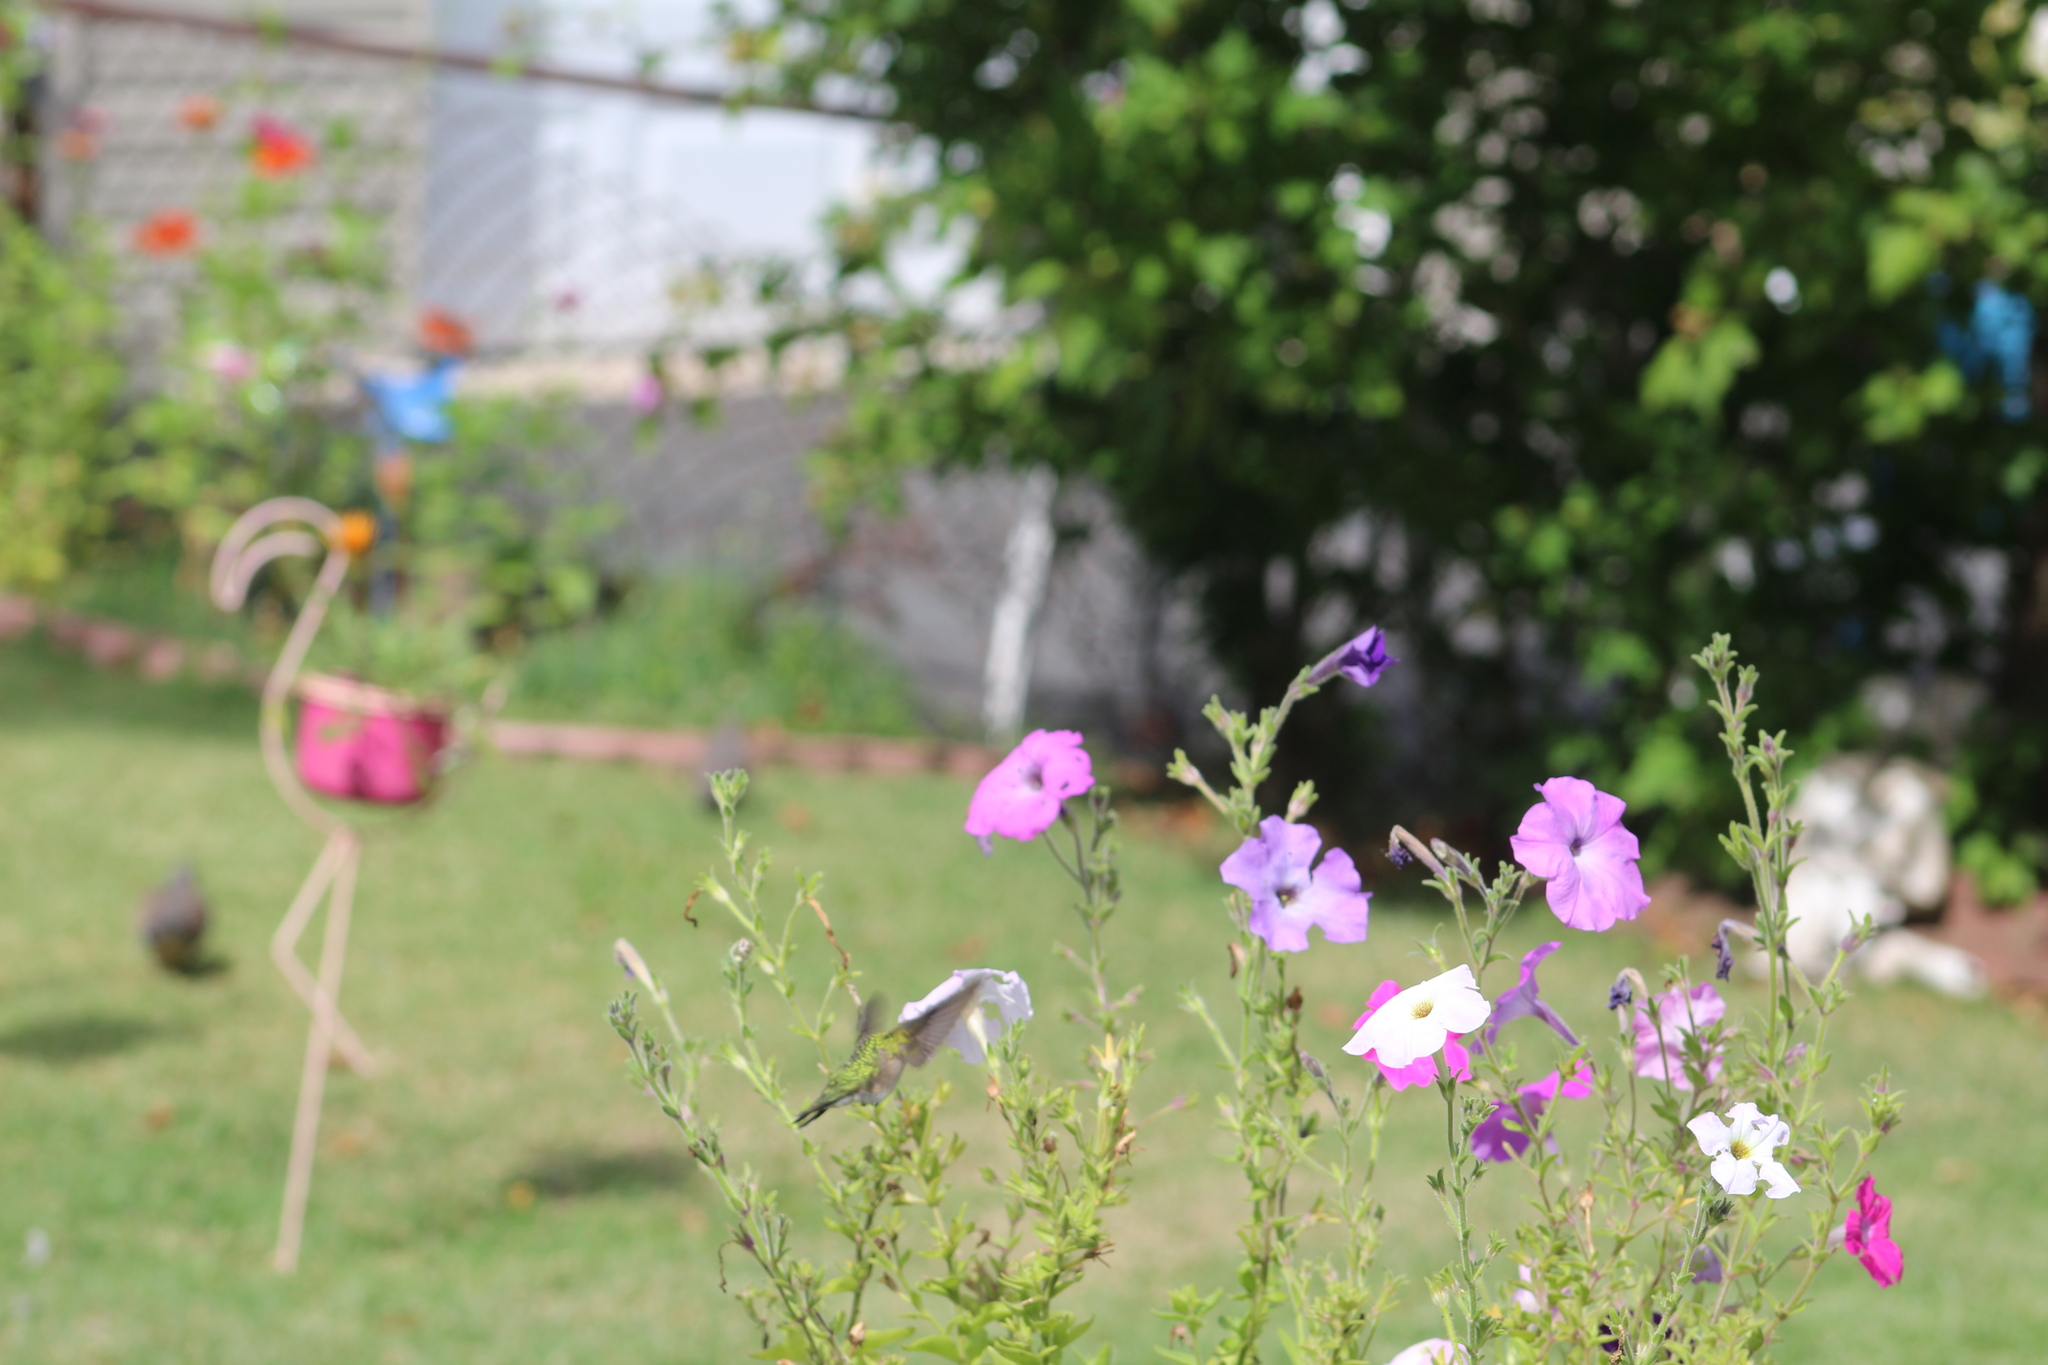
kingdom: Animalia
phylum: Chordata
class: Aves
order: Apodiformes
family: Trochilidae
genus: Archilochus
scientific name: Archilochus colubris
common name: Ruby-throated hummingbird
